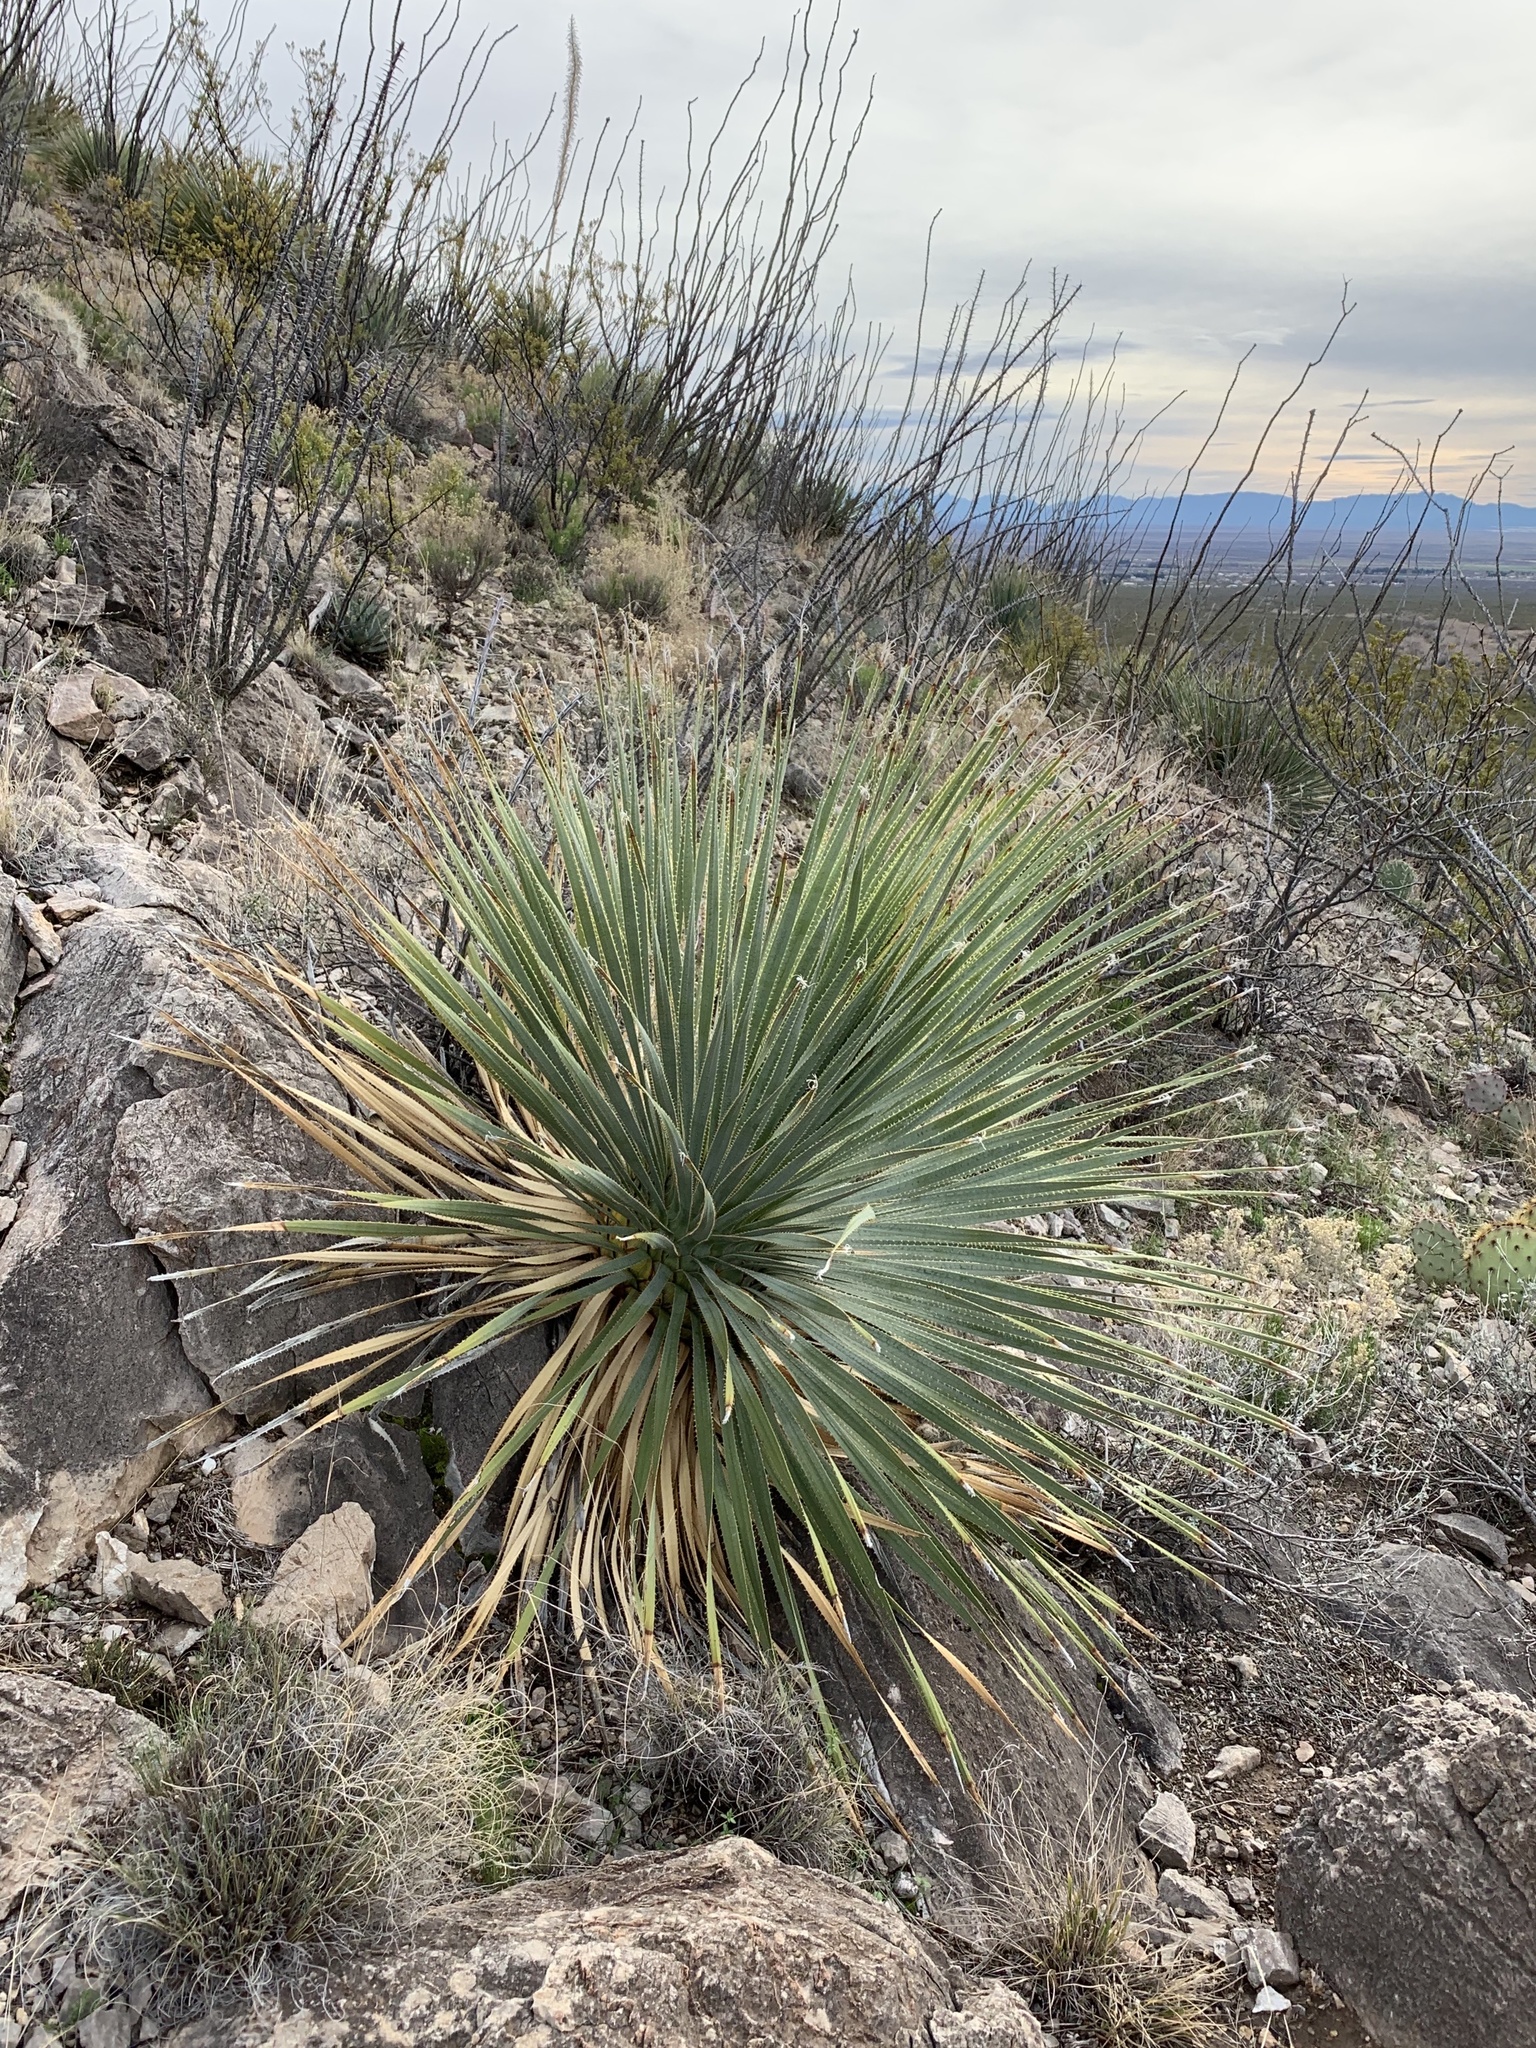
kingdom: Plantae
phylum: Tracheophyta
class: Liliopsida
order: Asparagales
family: Asparagaceae
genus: Dasylirion
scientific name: Dasylirion wheeleri
